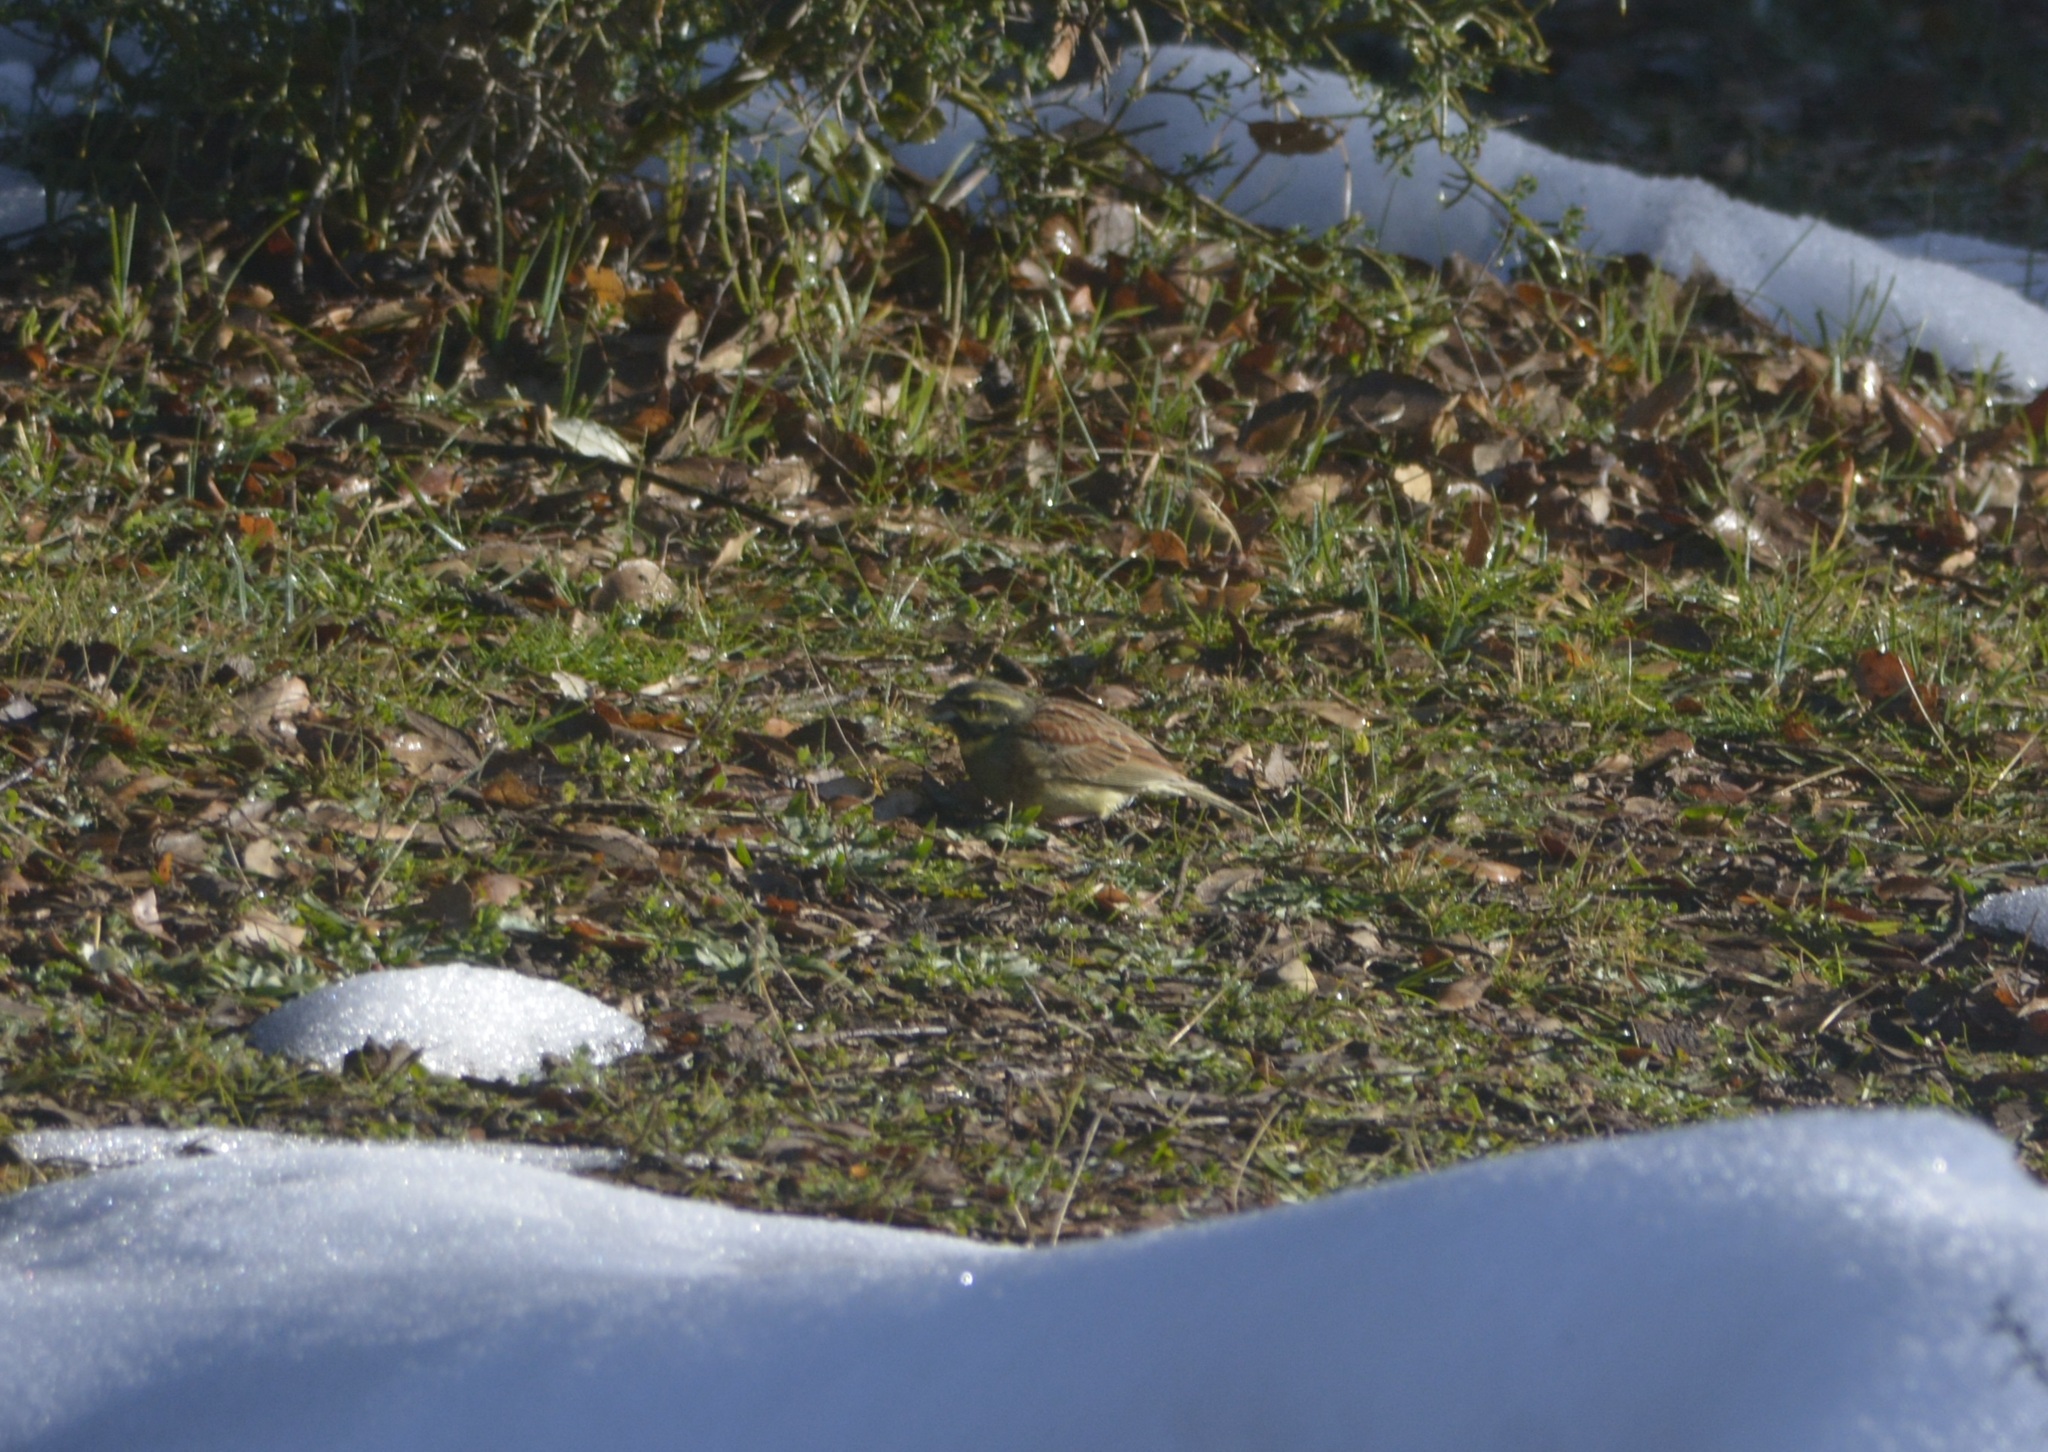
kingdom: Animalia
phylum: Chordata
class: Aves
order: Passeriformes
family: Emberizidae
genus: Emberiza
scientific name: Emberiza cirlus
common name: Cirl bunting
